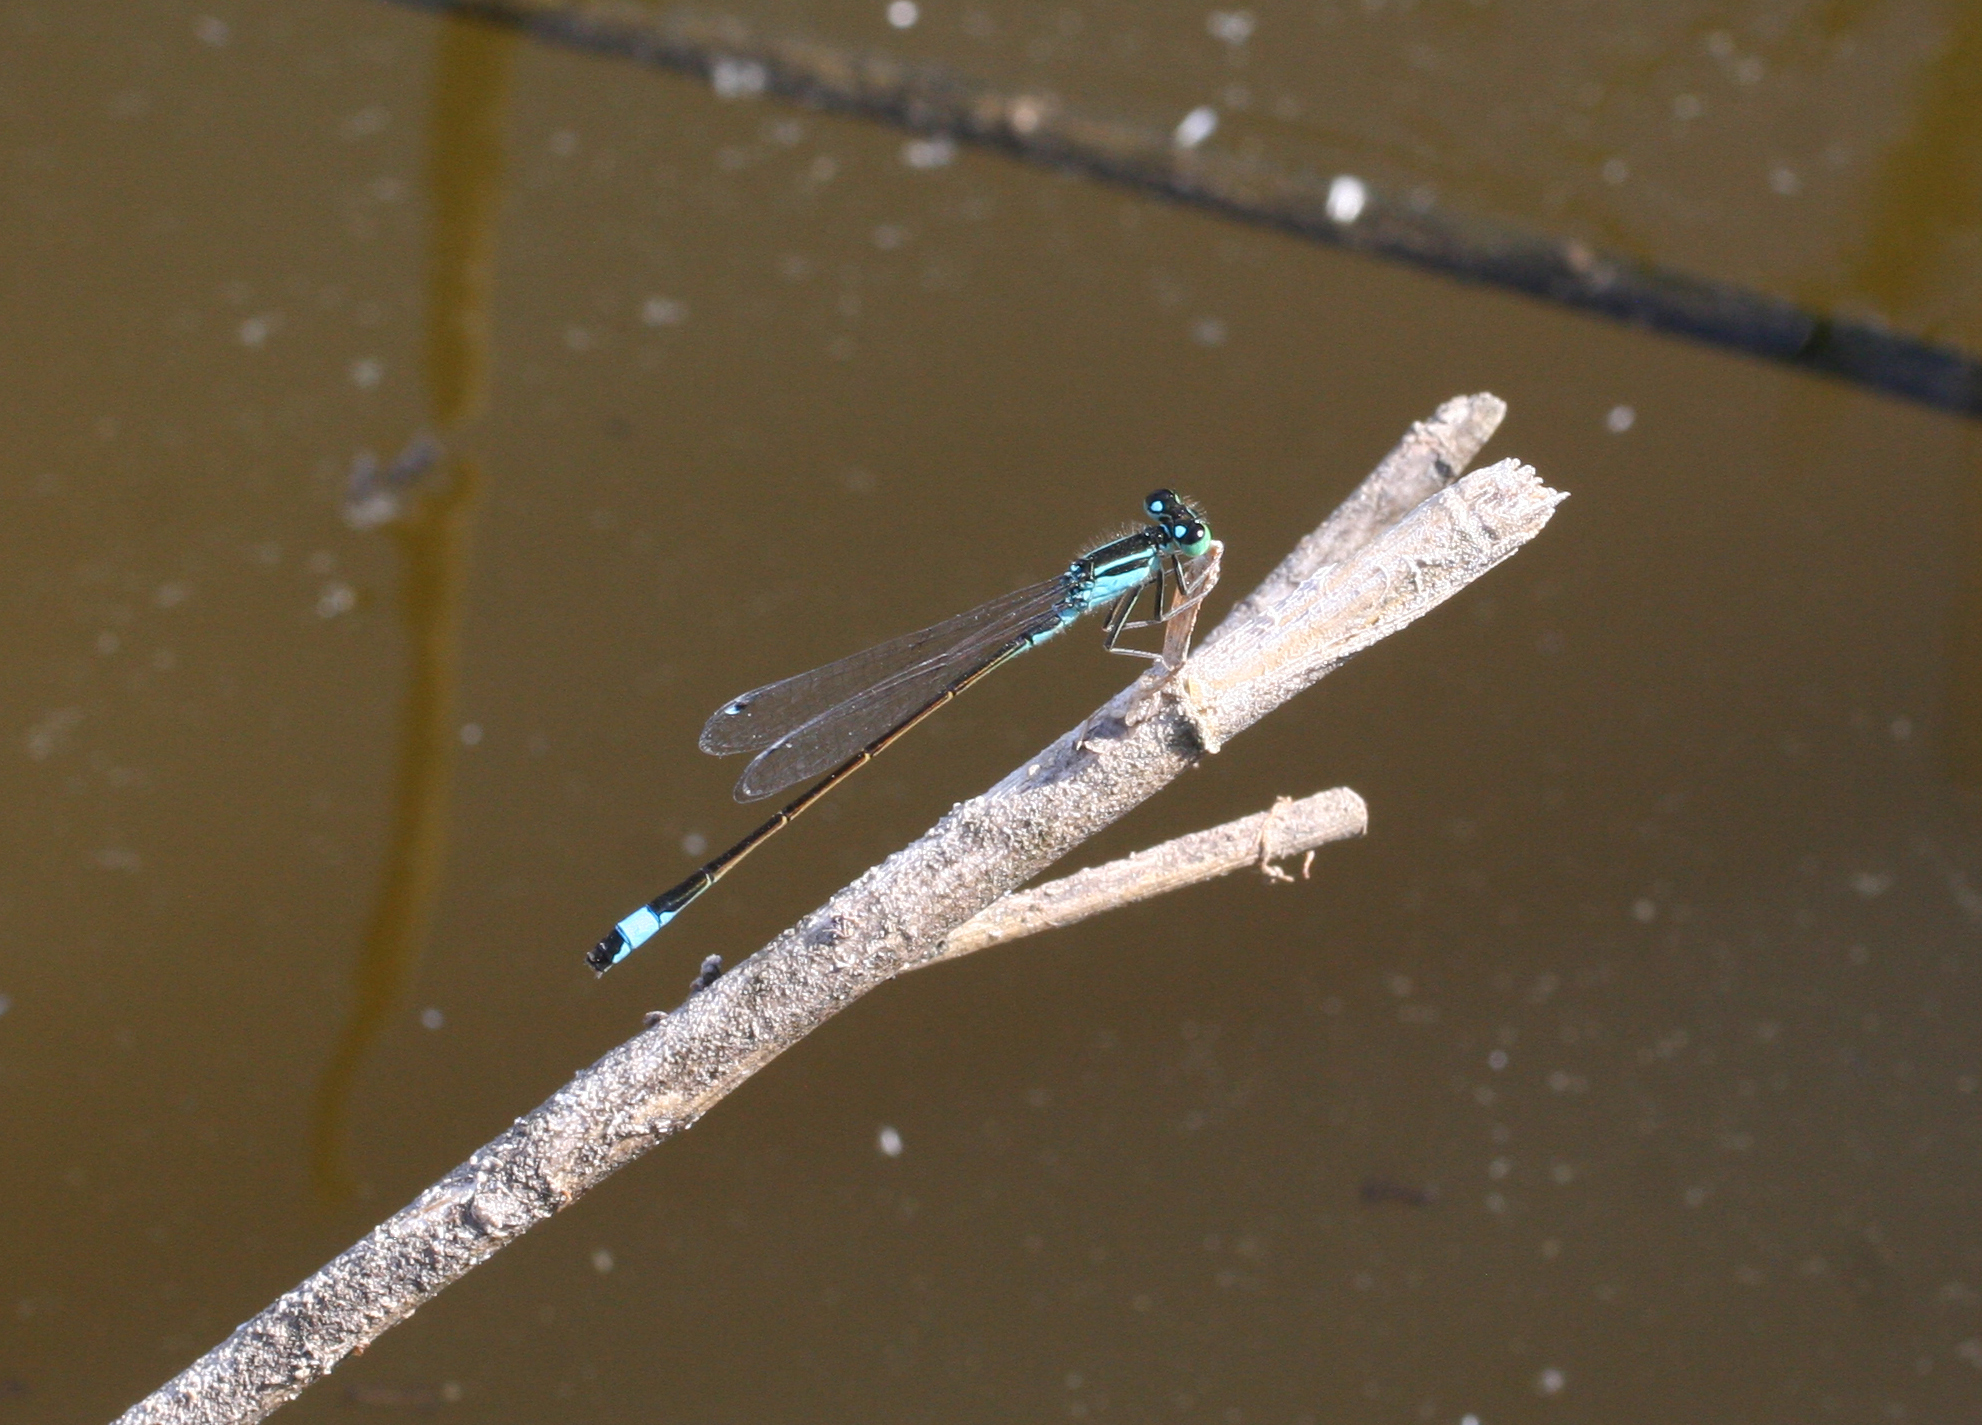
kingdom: Animalia
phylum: Arthropoda
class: Insecta
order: Odonata
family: Coenagrionidae
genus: Ischnura
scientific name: Ischnura elegans
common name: Blue-tailed damselfly
